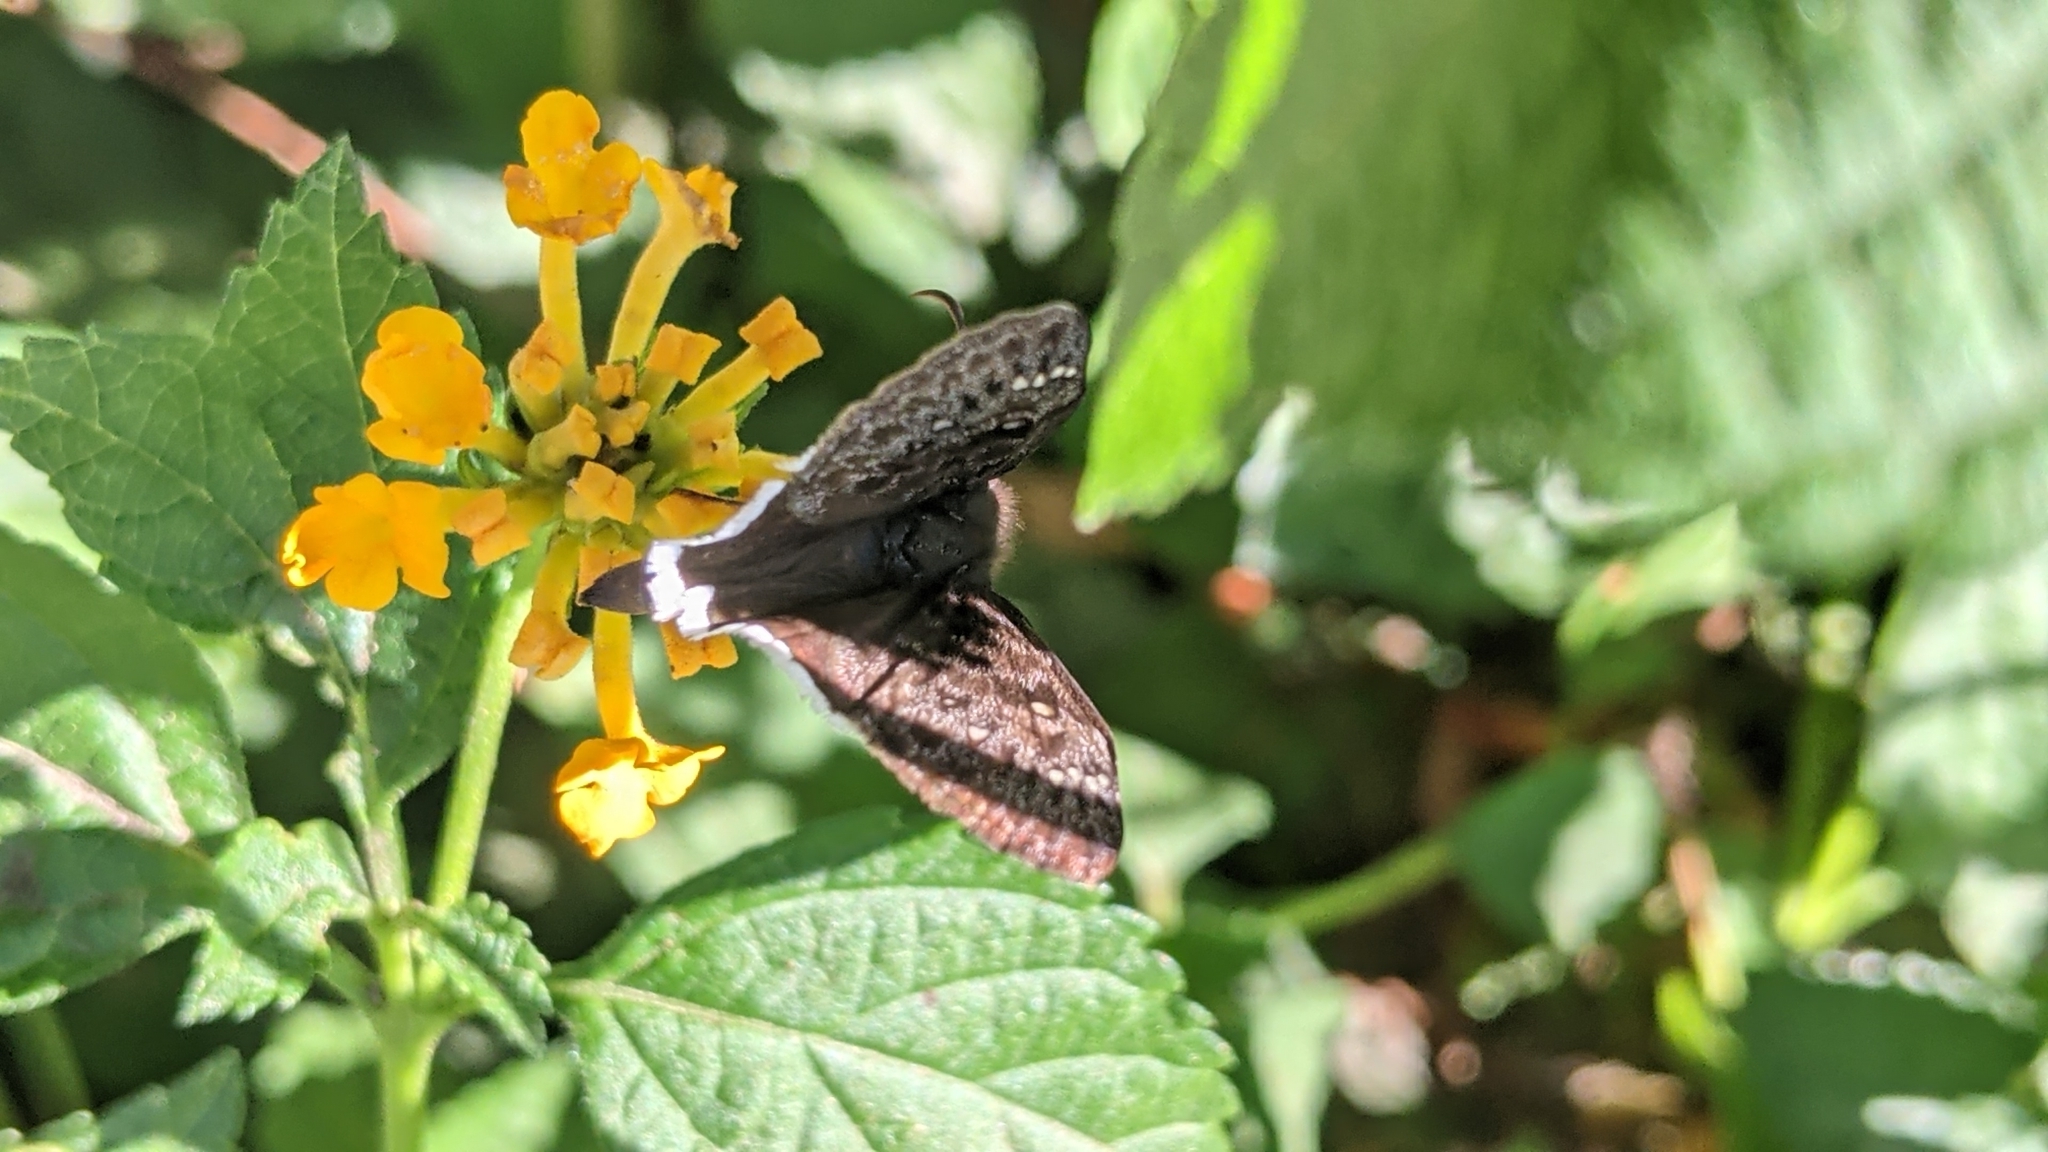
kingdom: Animalia
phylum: Arthropoda
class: Insecta
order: Lepidoptera
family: Hesperiidae
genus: Erynnis
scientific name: Erynnis tristis
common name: Mournful duskywing
